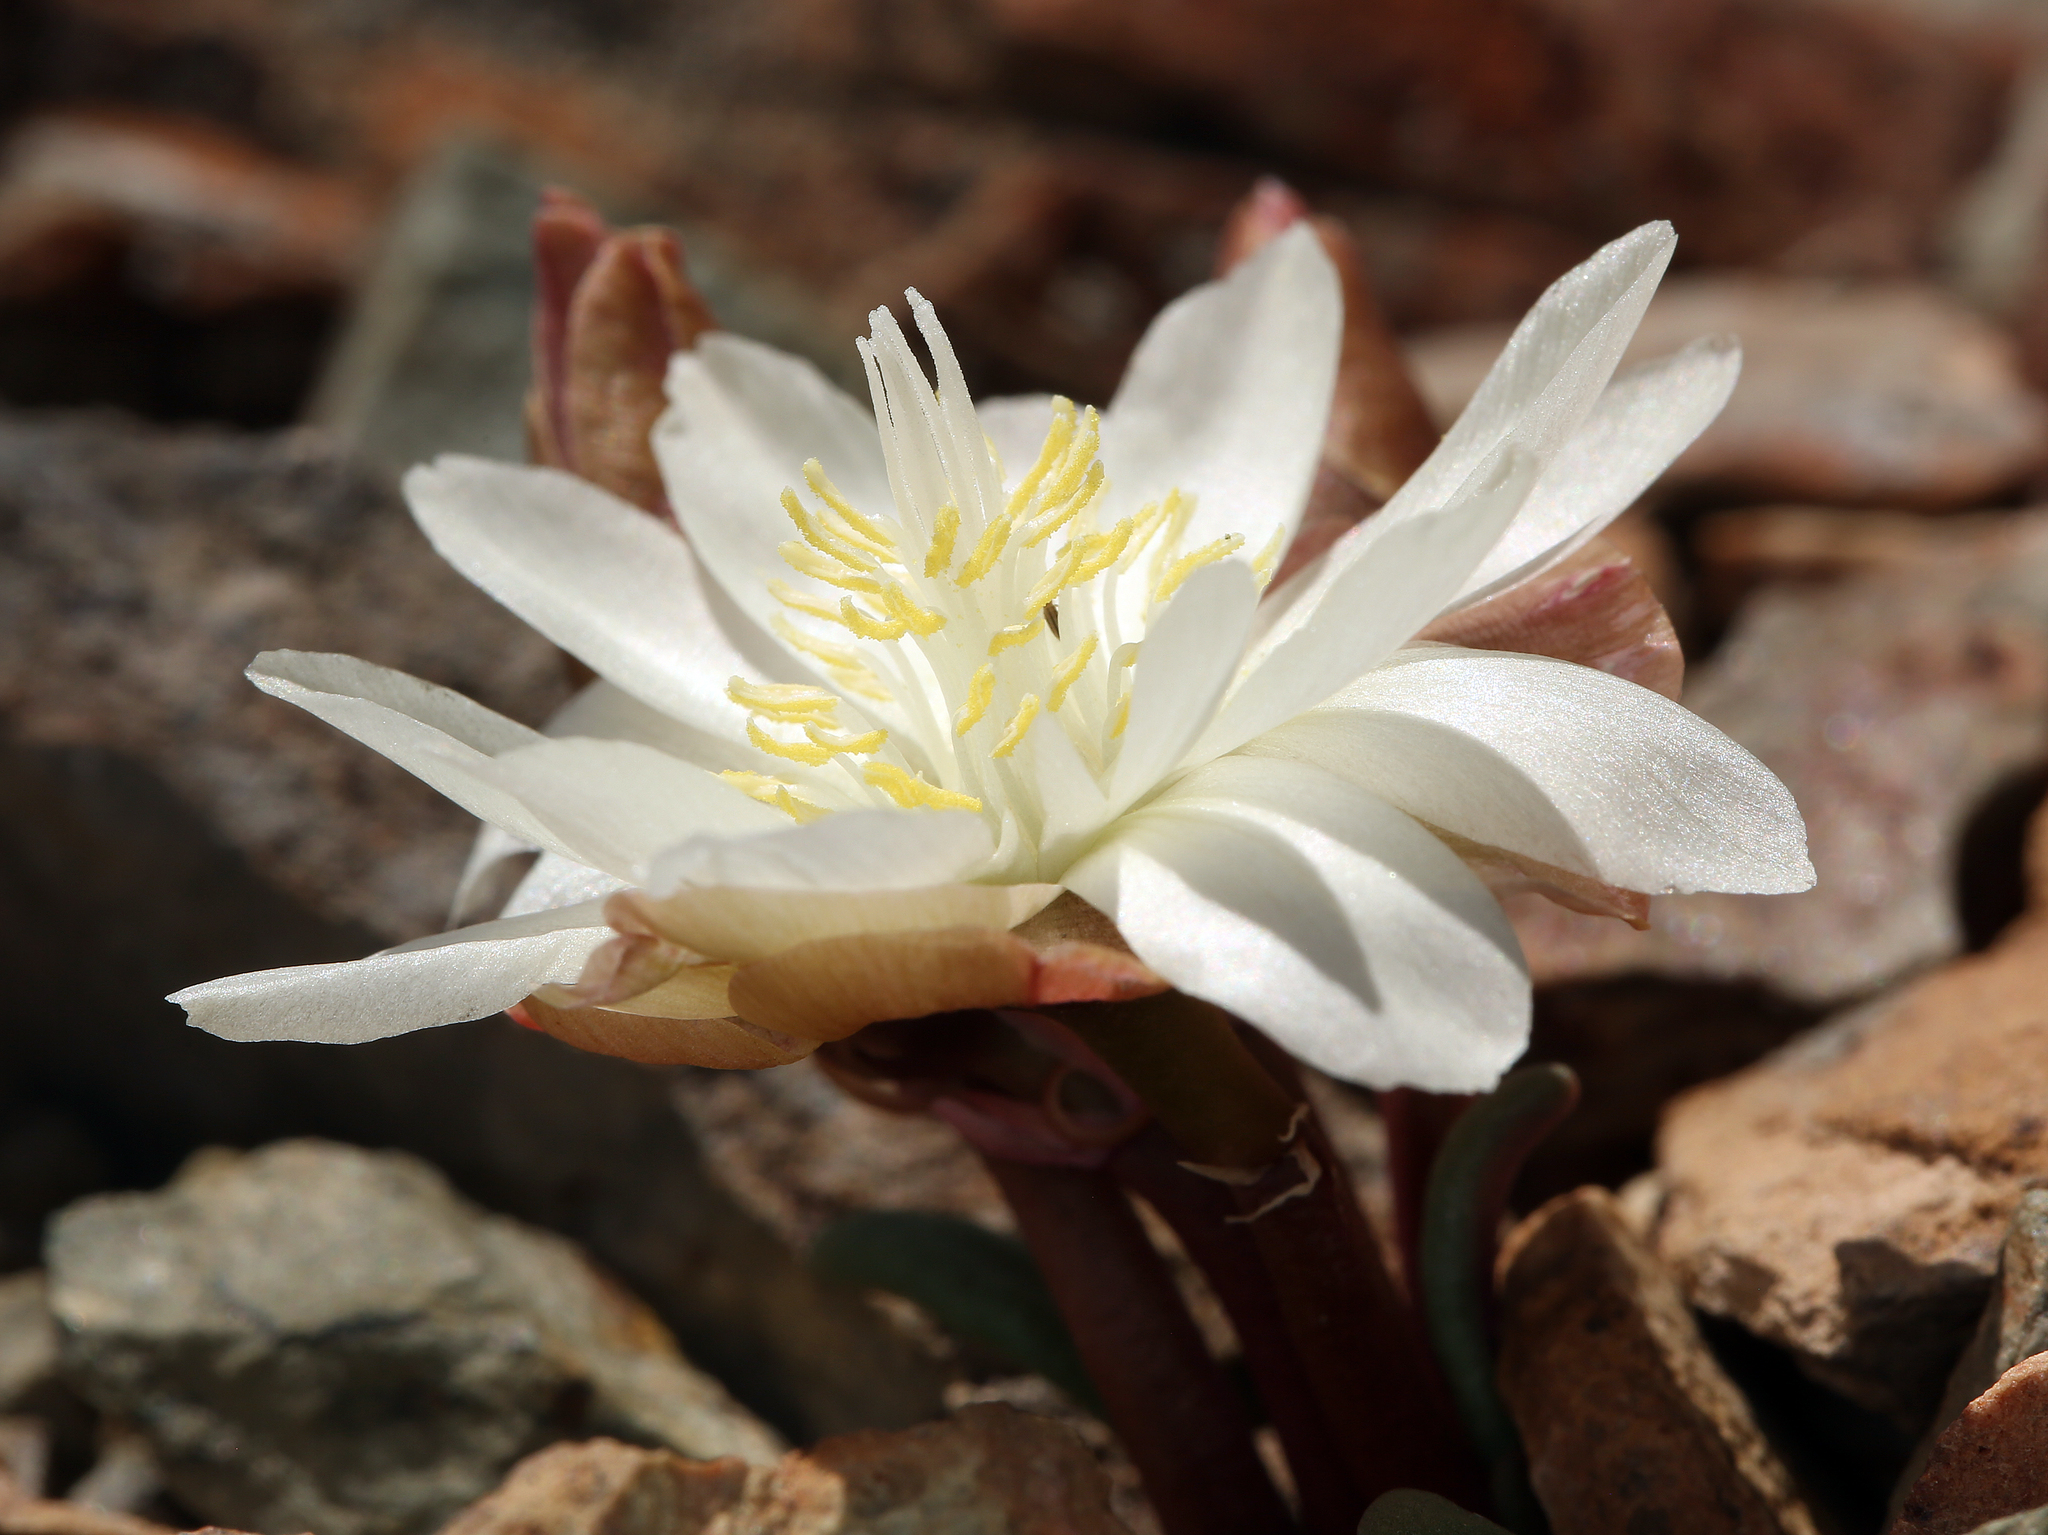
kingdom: Plantae
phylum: Tracheophyta
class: Magnoliopsida
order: Caryophyllales
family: Montiaceae
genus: Lewisia
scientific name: Lewisia rediviva
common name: Bitter-root
